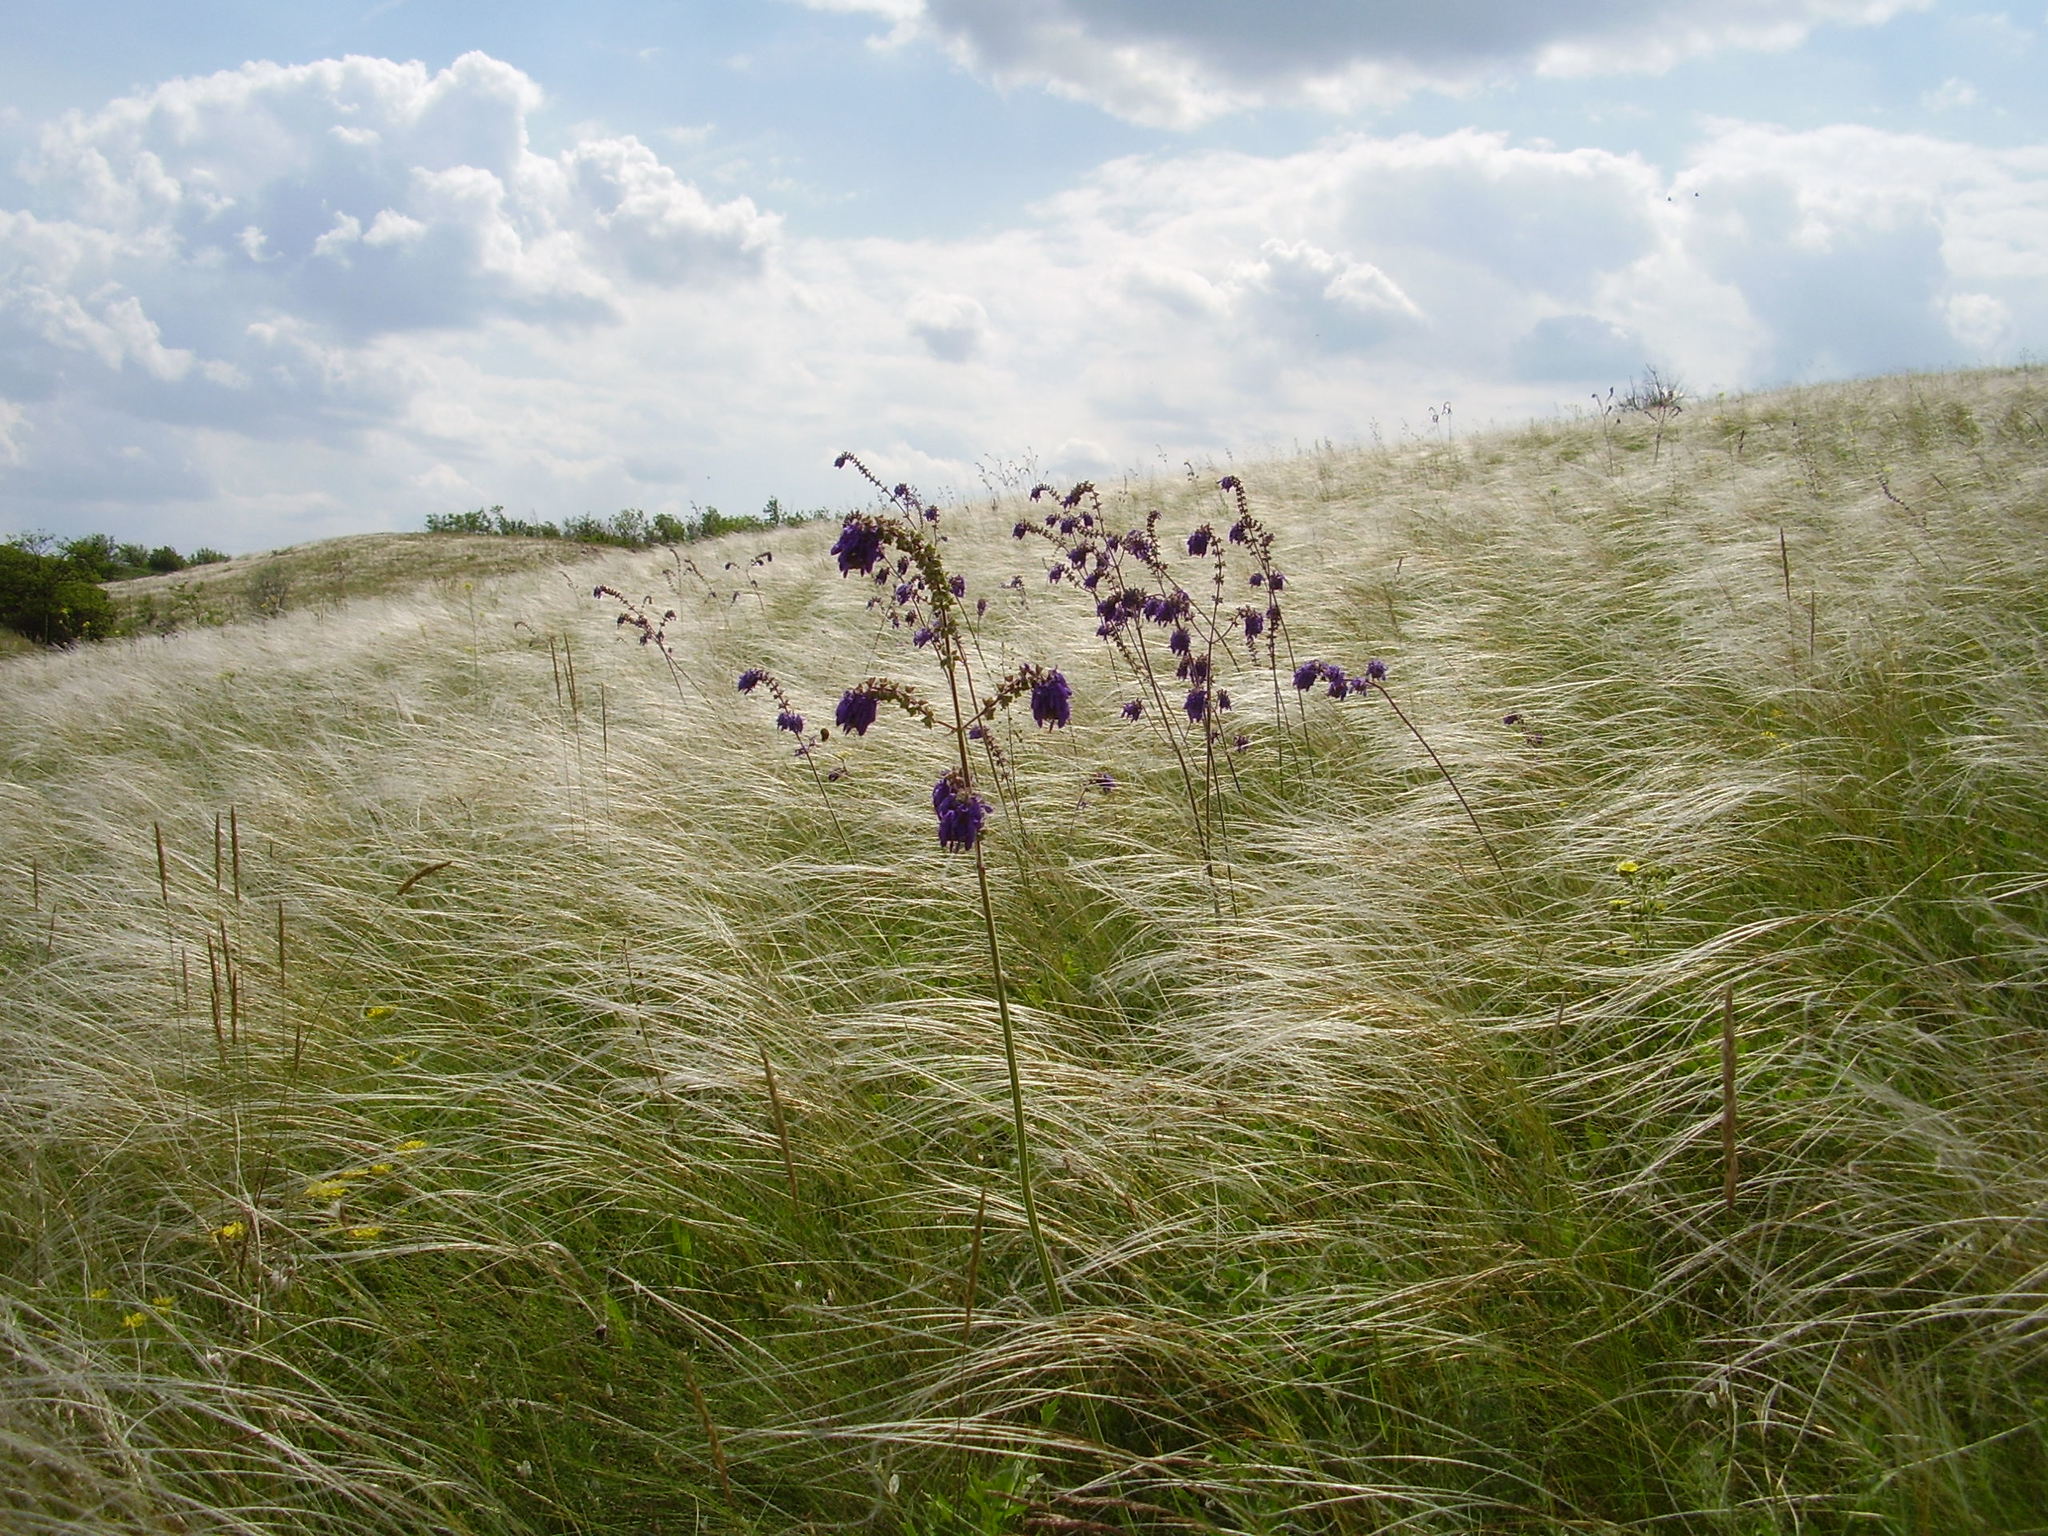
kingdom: Plantae
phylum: Tracheophyta
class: Magnoliopsida
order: Lamiales
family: Lamiaceae
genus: Salvia
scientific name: Salvia nutans
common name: Nodding sage
